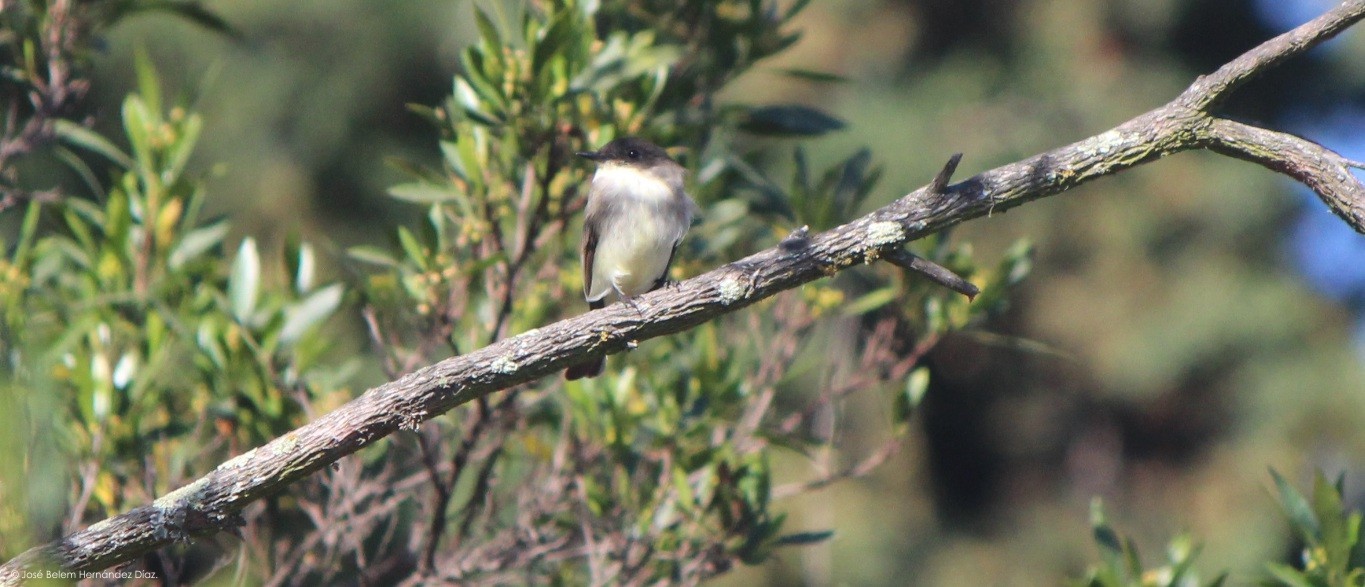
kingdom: Animalia
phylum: Chordata
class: Aves
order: Passeriformes
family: Tyrannidae
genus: Sayornis
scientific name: Sayornis phoebe
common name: Eastern phoebe
